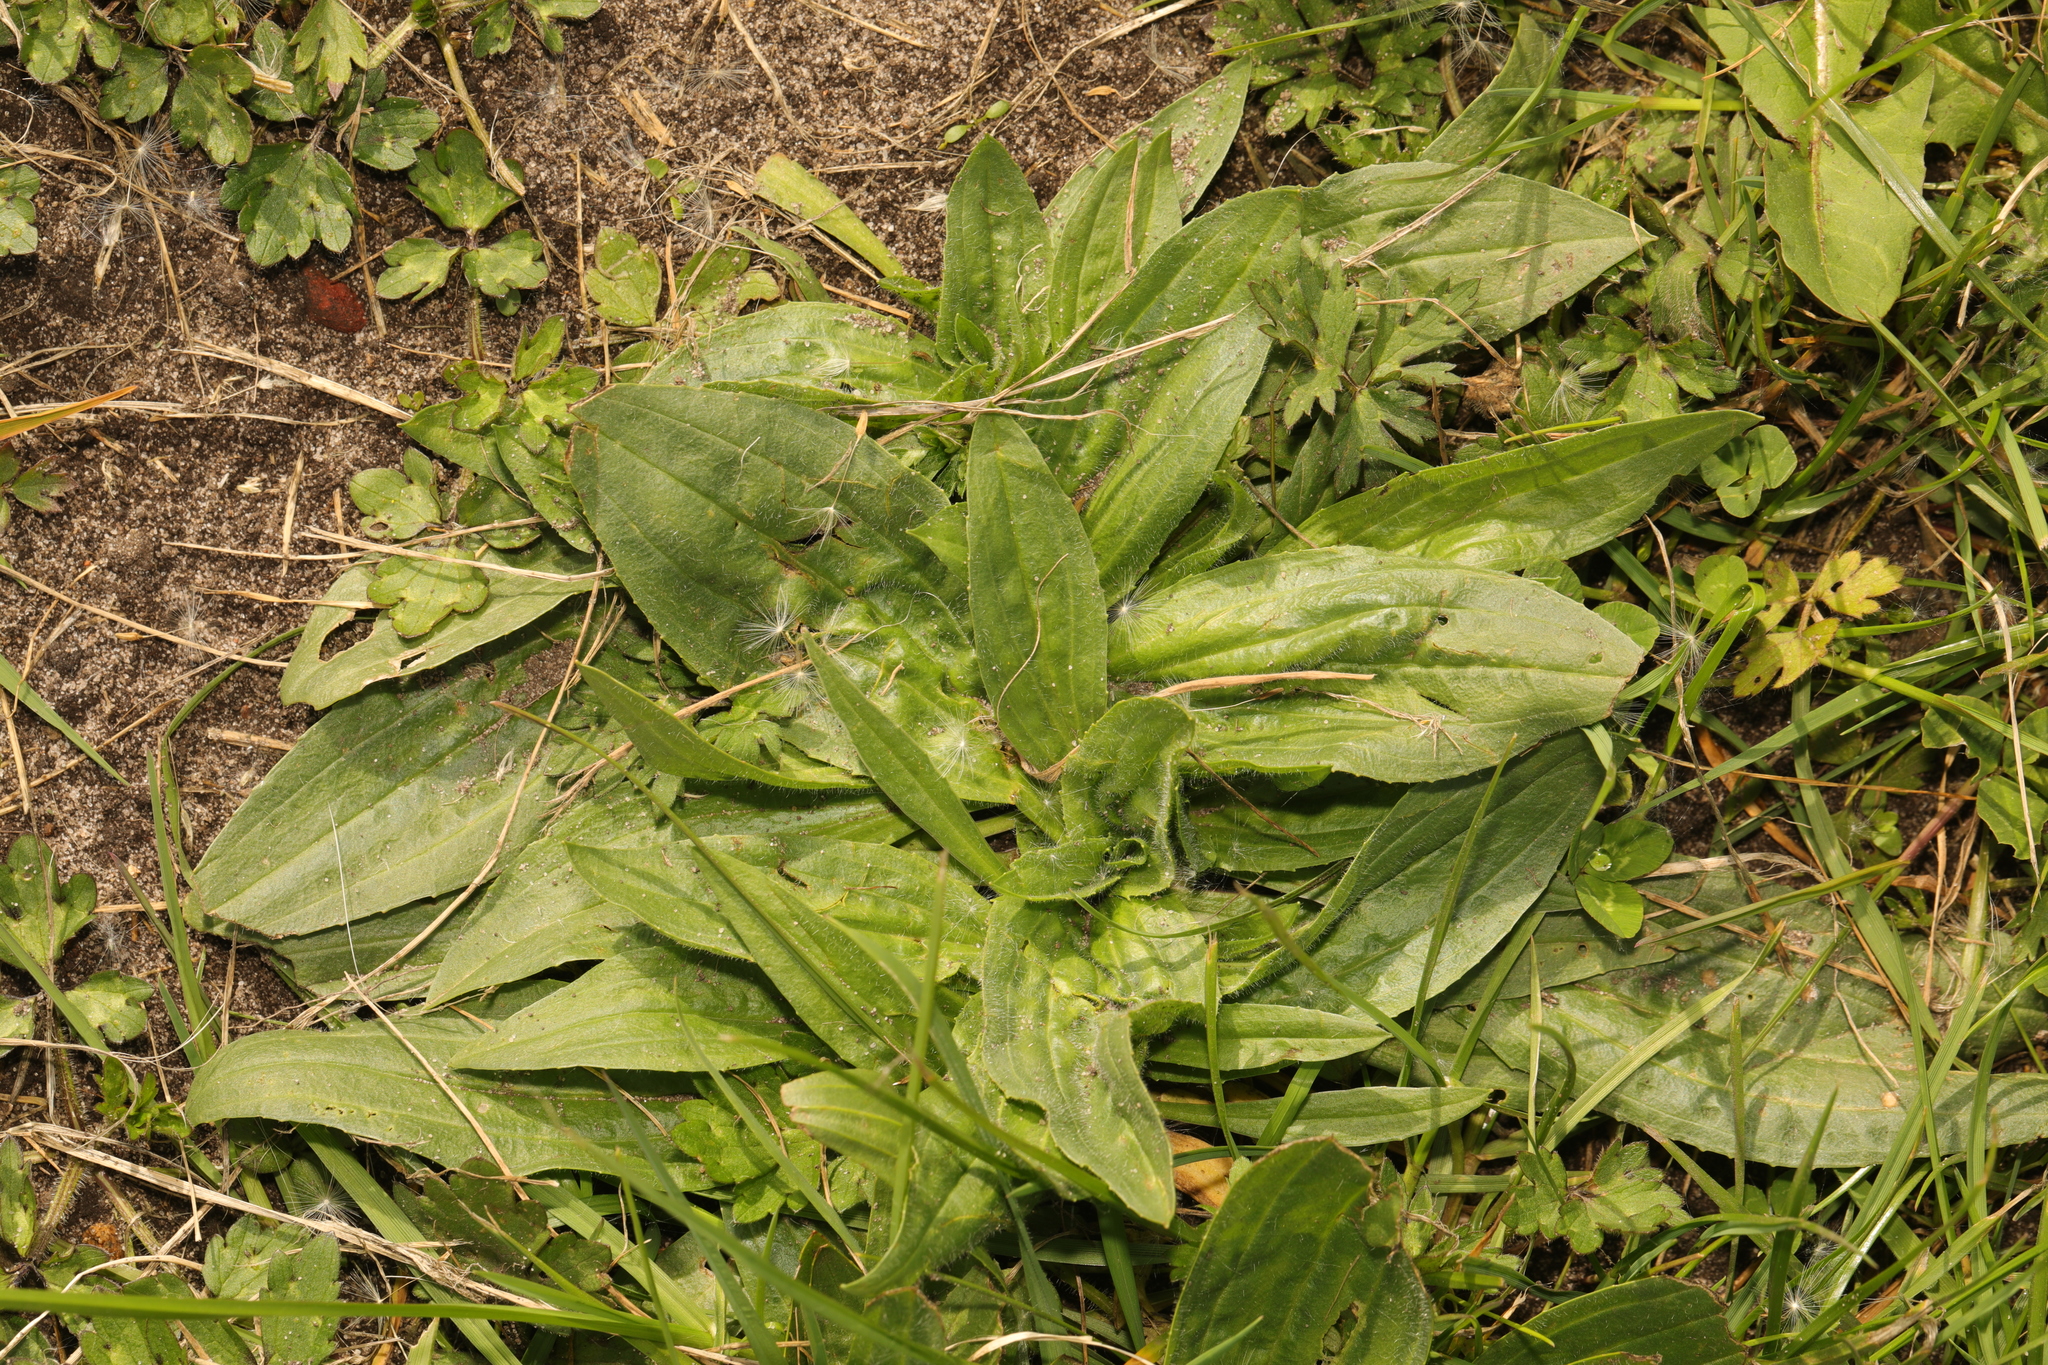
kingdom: Plantae
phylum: Tracheophyta
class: Magnoliopsida
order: Lamiales
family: Plantaginaceae
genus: Plantago
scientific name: Plantago lanceolata
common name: Ribwort plantain
